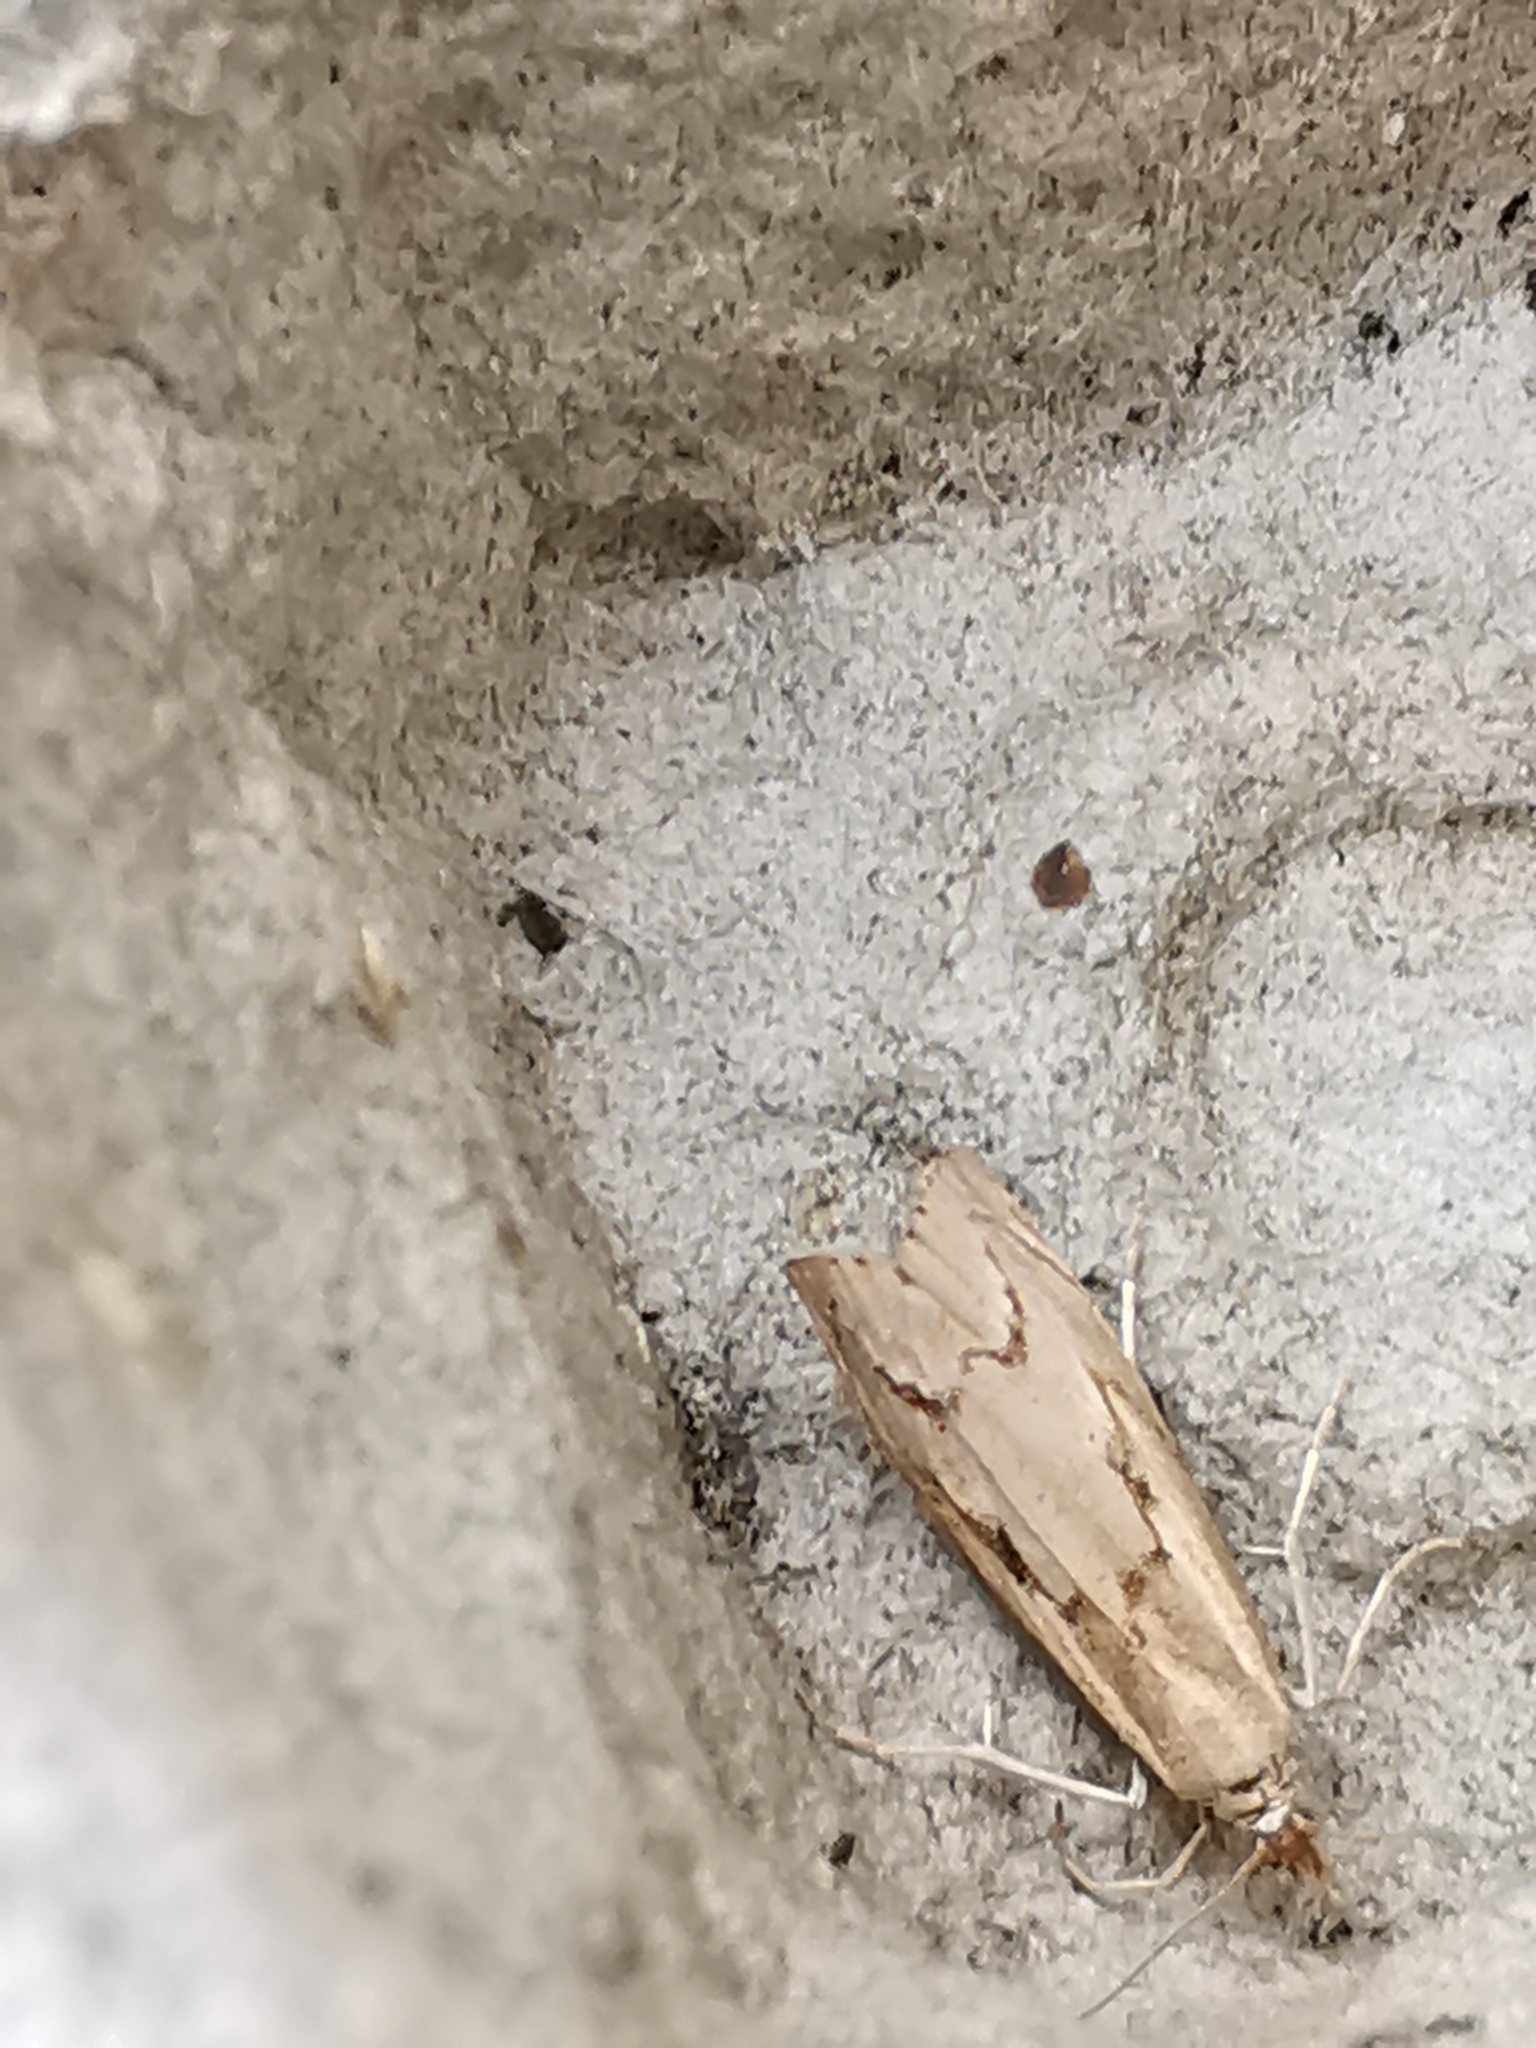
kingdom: Animalia
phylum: Arthropoda
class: Insecta
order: Lepidoptera
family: Crambidae
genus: Agriphila
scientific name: Agriphila geniculea
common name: Elbow-stripe grass-veneer
